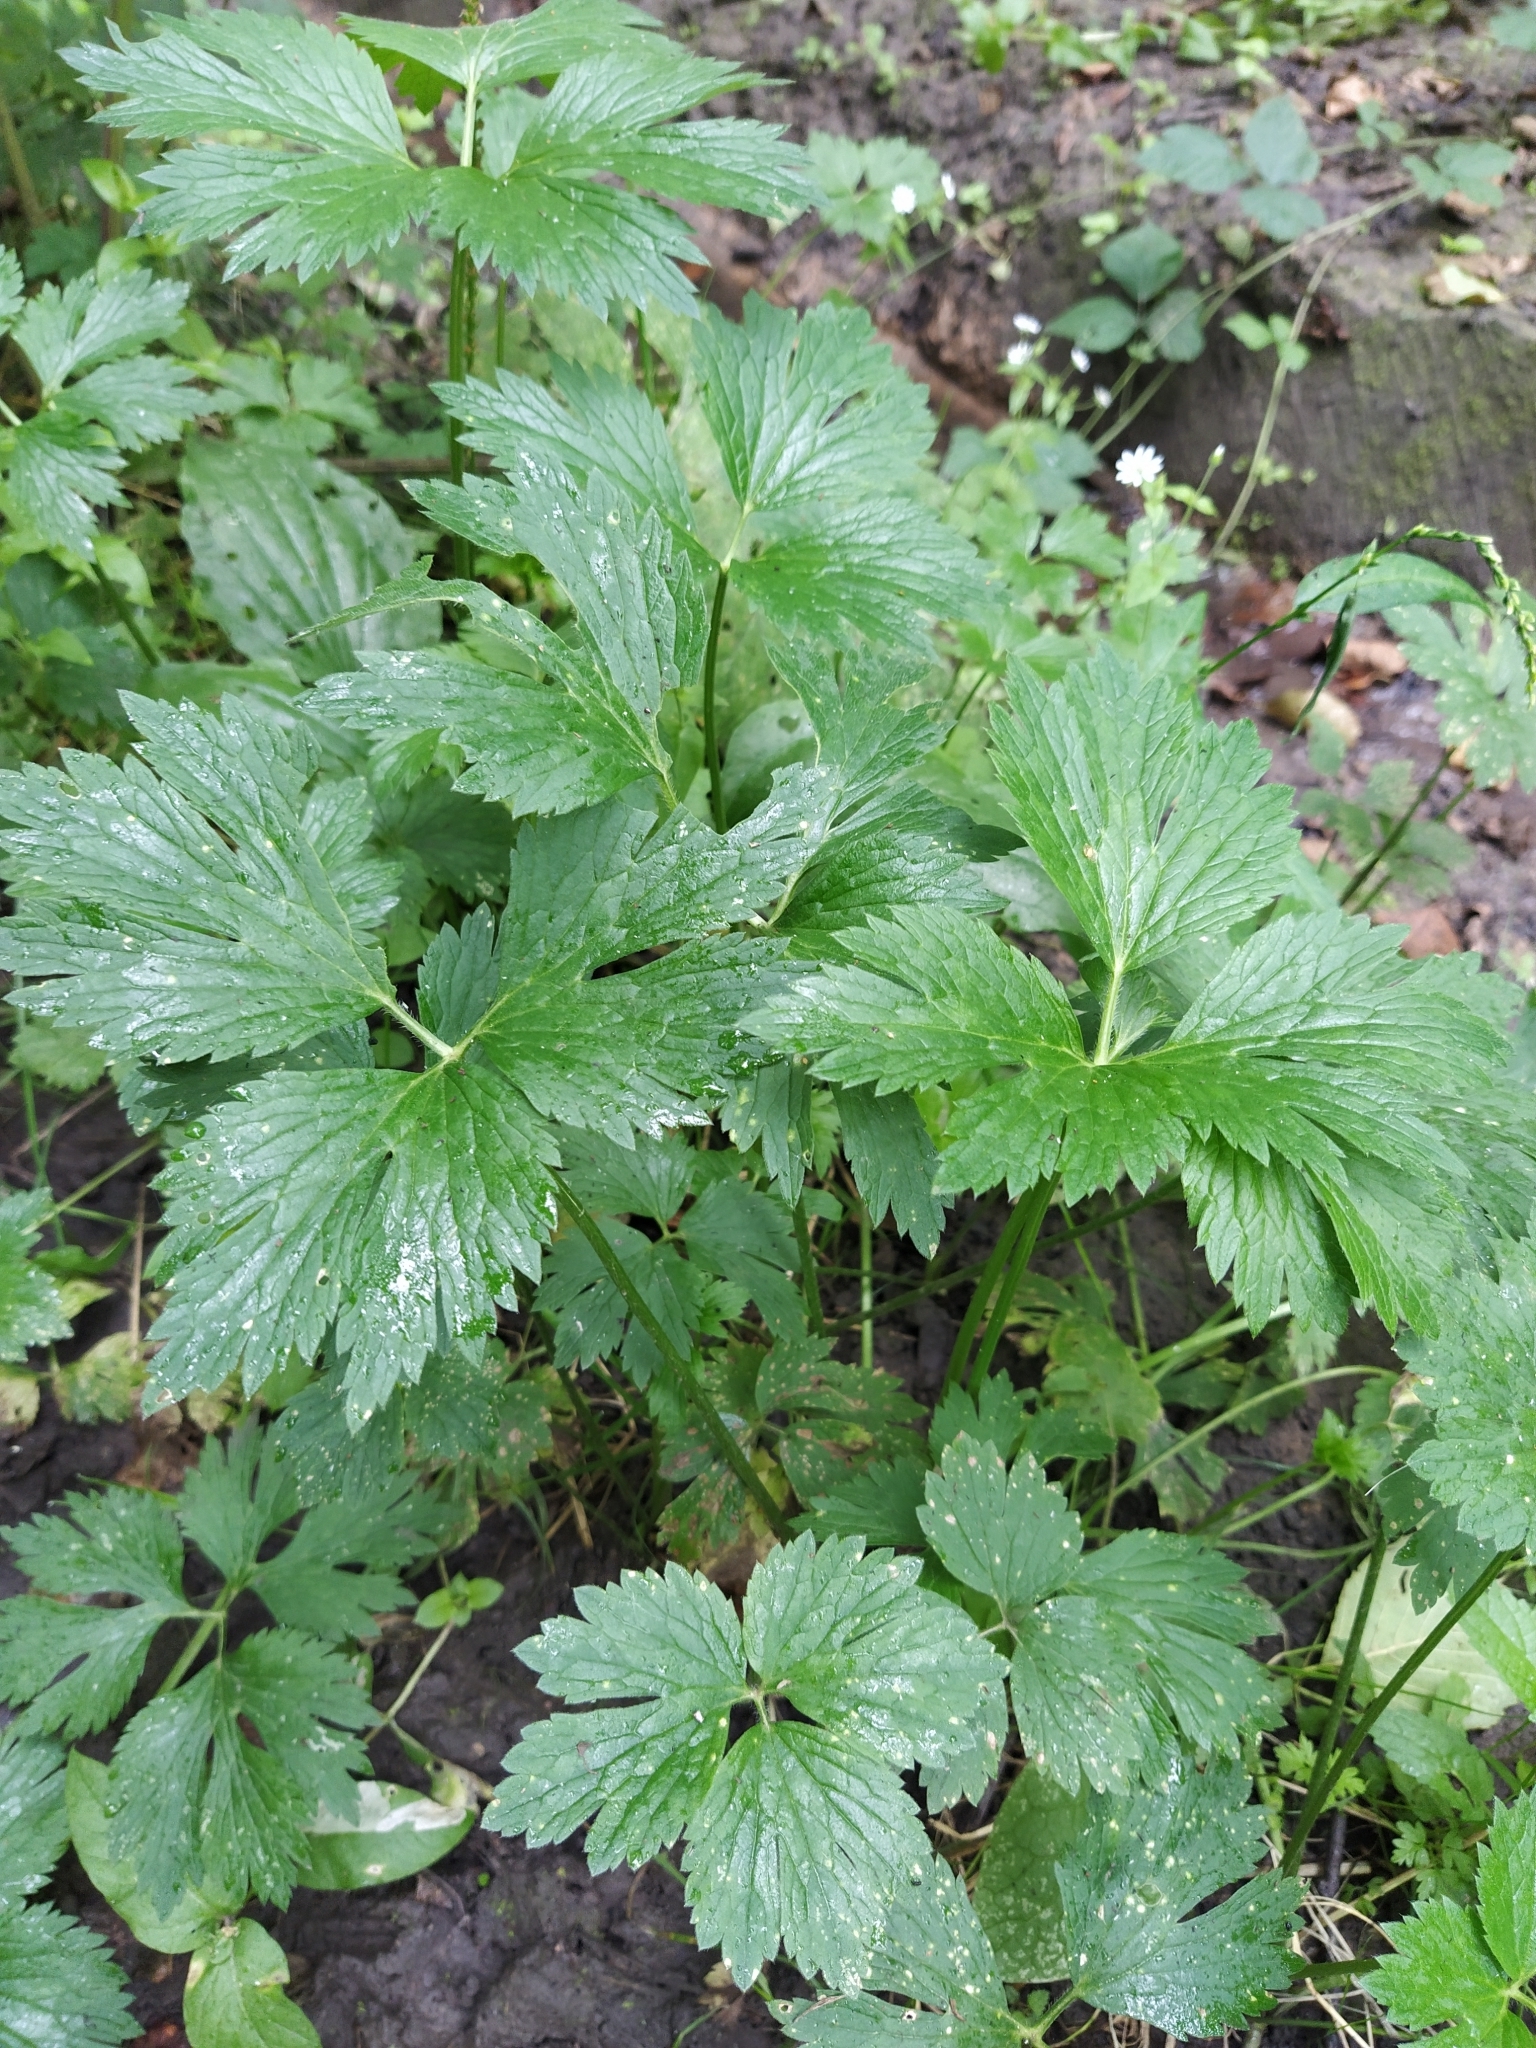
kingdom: Plantae
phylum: Tracheophyta
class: Magnoliopsida
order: Ranunculales
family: Ranunculaceae
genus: Ranunculus
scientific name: Ranunculus repens
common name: Creeping buttercup
